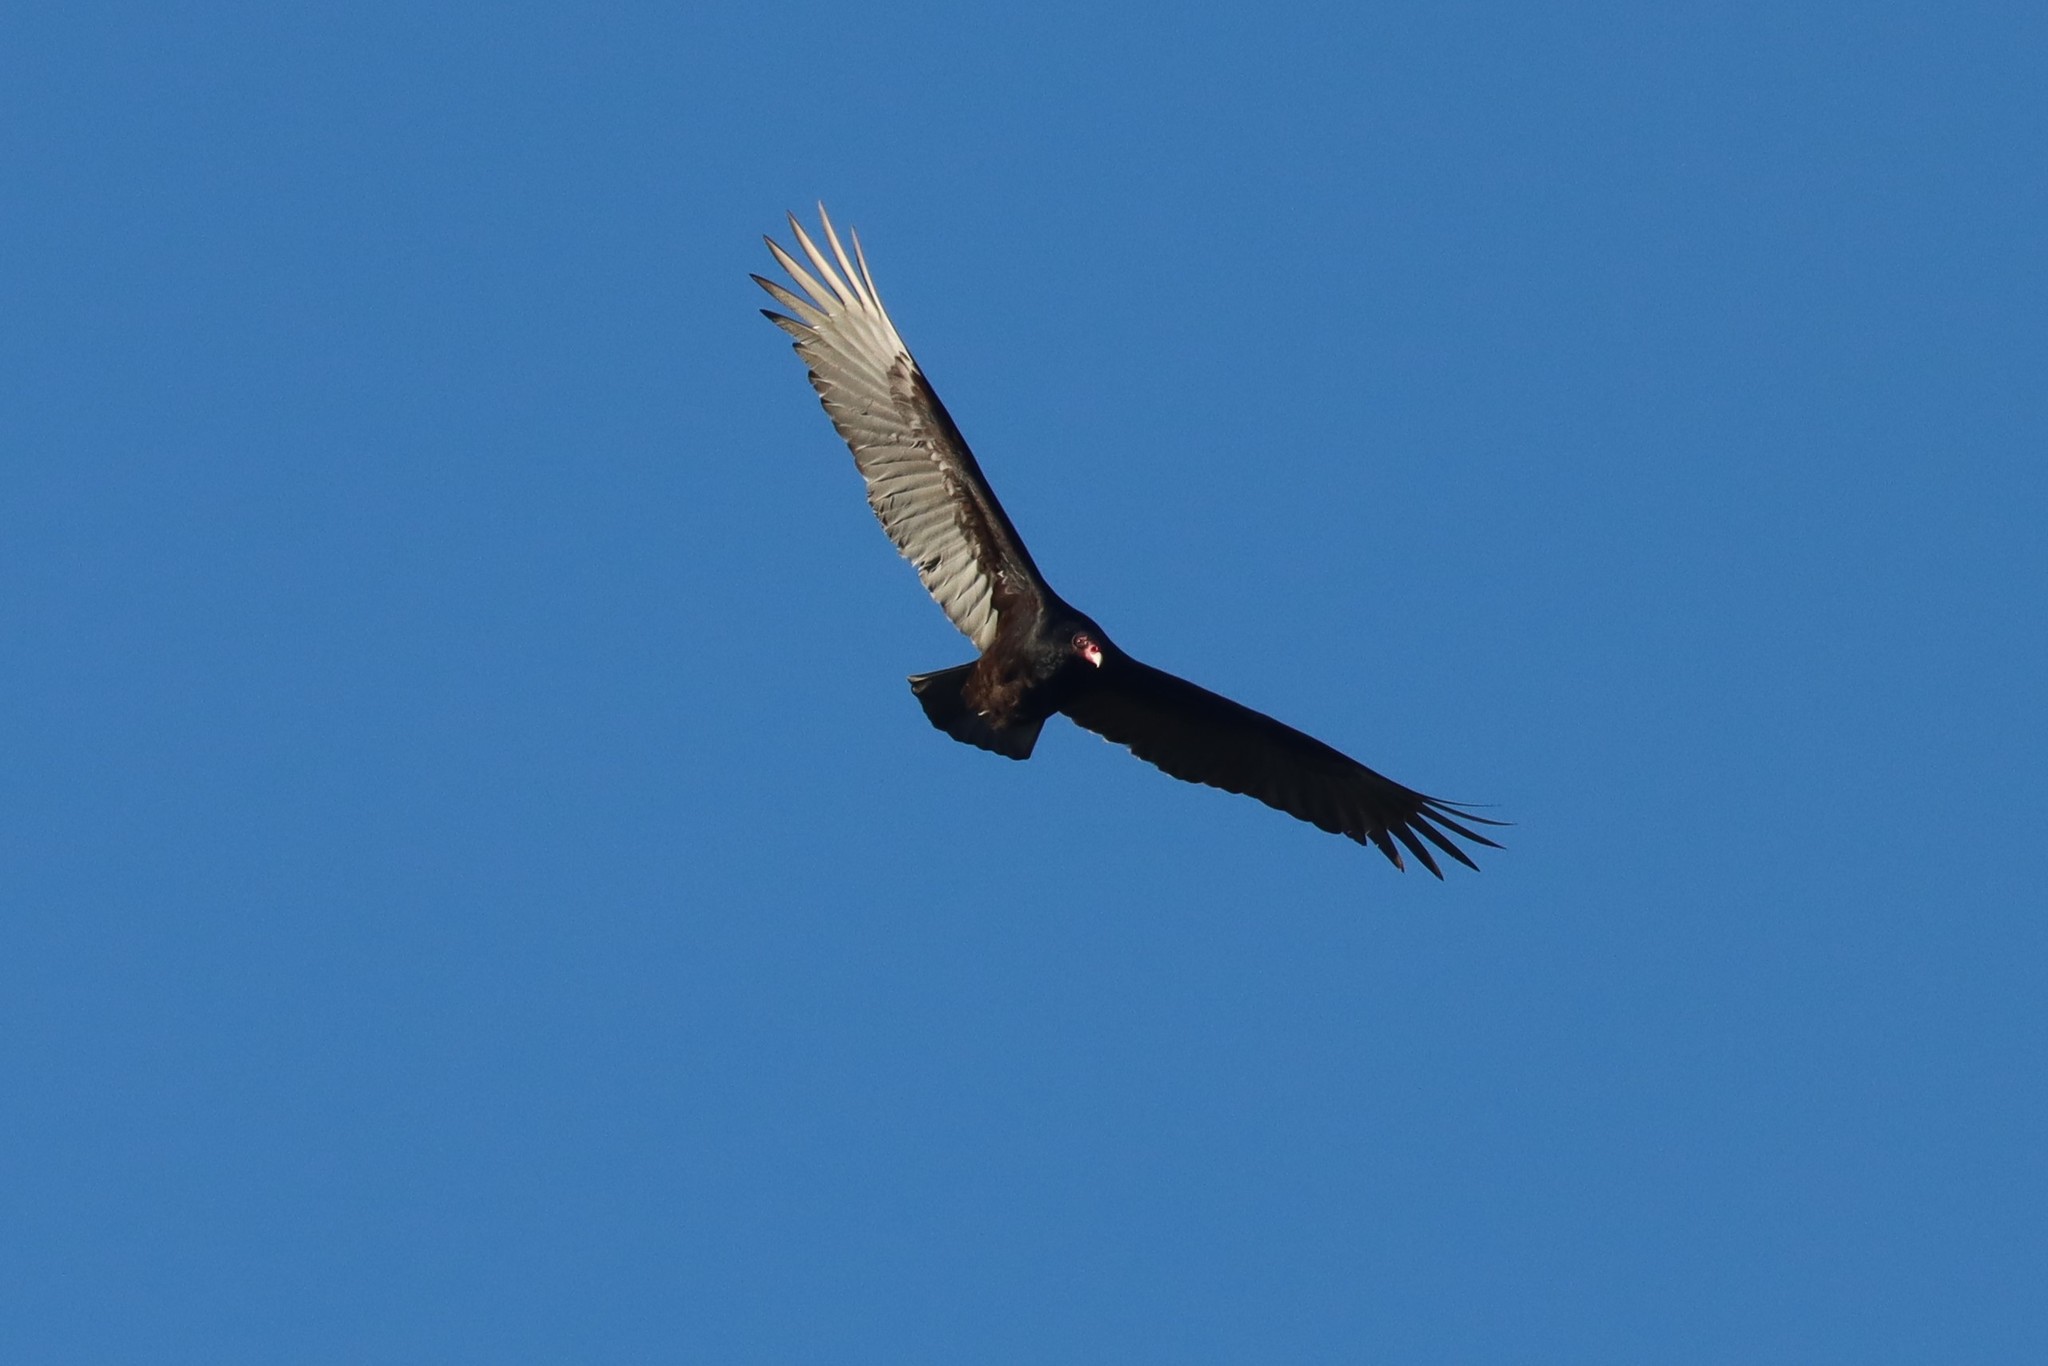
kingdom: Animalia
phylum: Chordata
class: Aves
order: Accipitriformes
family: Cathartidae
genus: Cathartes
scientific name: Cathartes aura
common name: Turkey vulture
